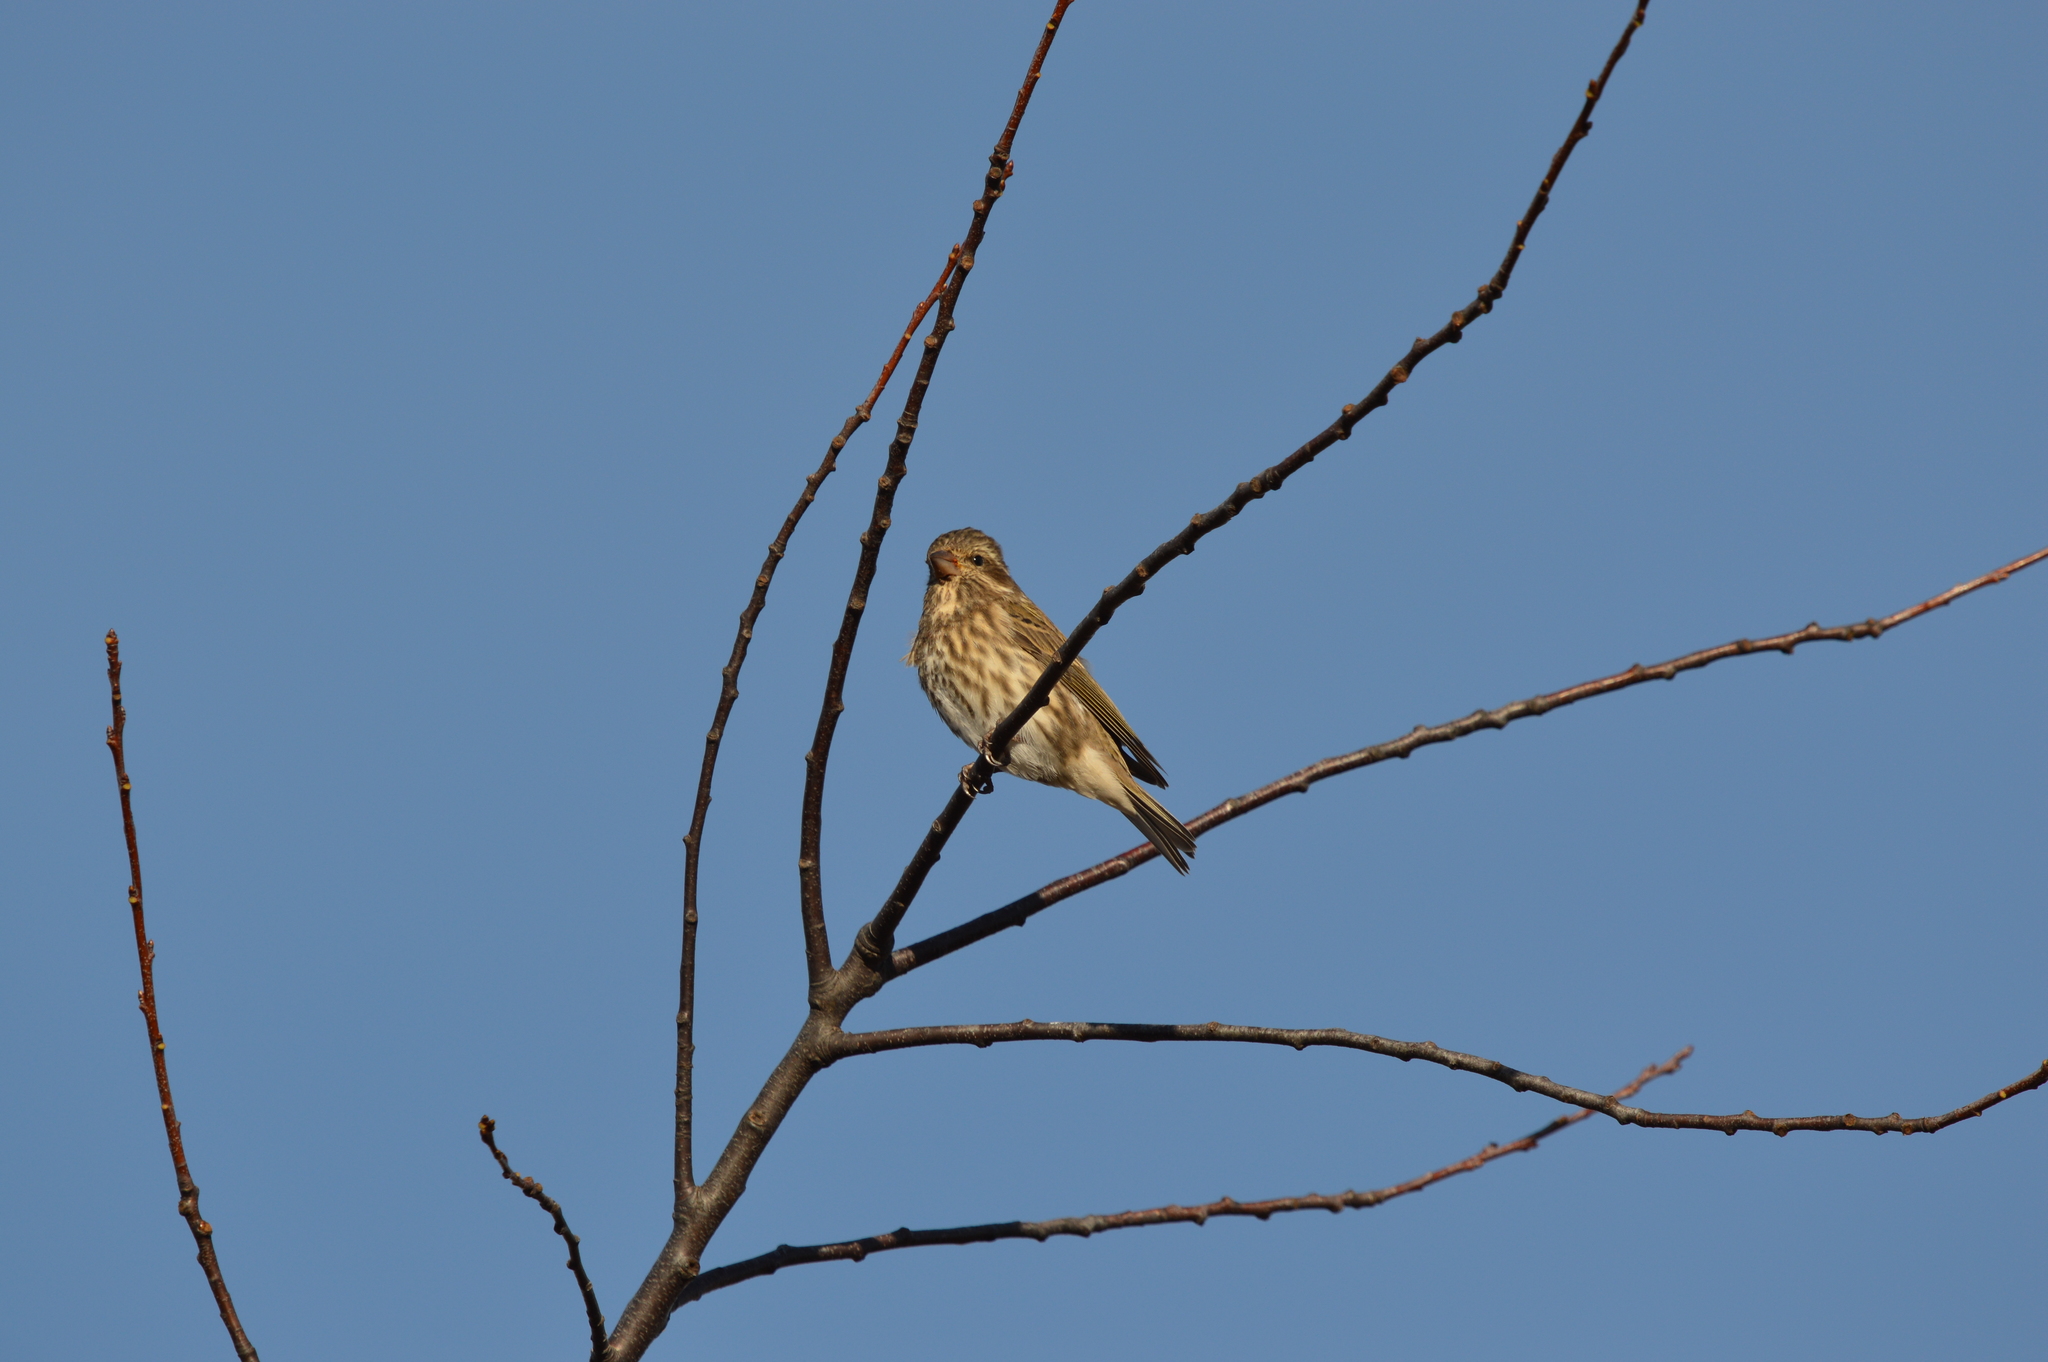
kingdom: Animalia
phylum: Chordata
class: Aves
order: Passeriformes
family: Fringillidae
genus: Haemorhous
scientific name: Haemorhous purpureus
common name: Purple finch
